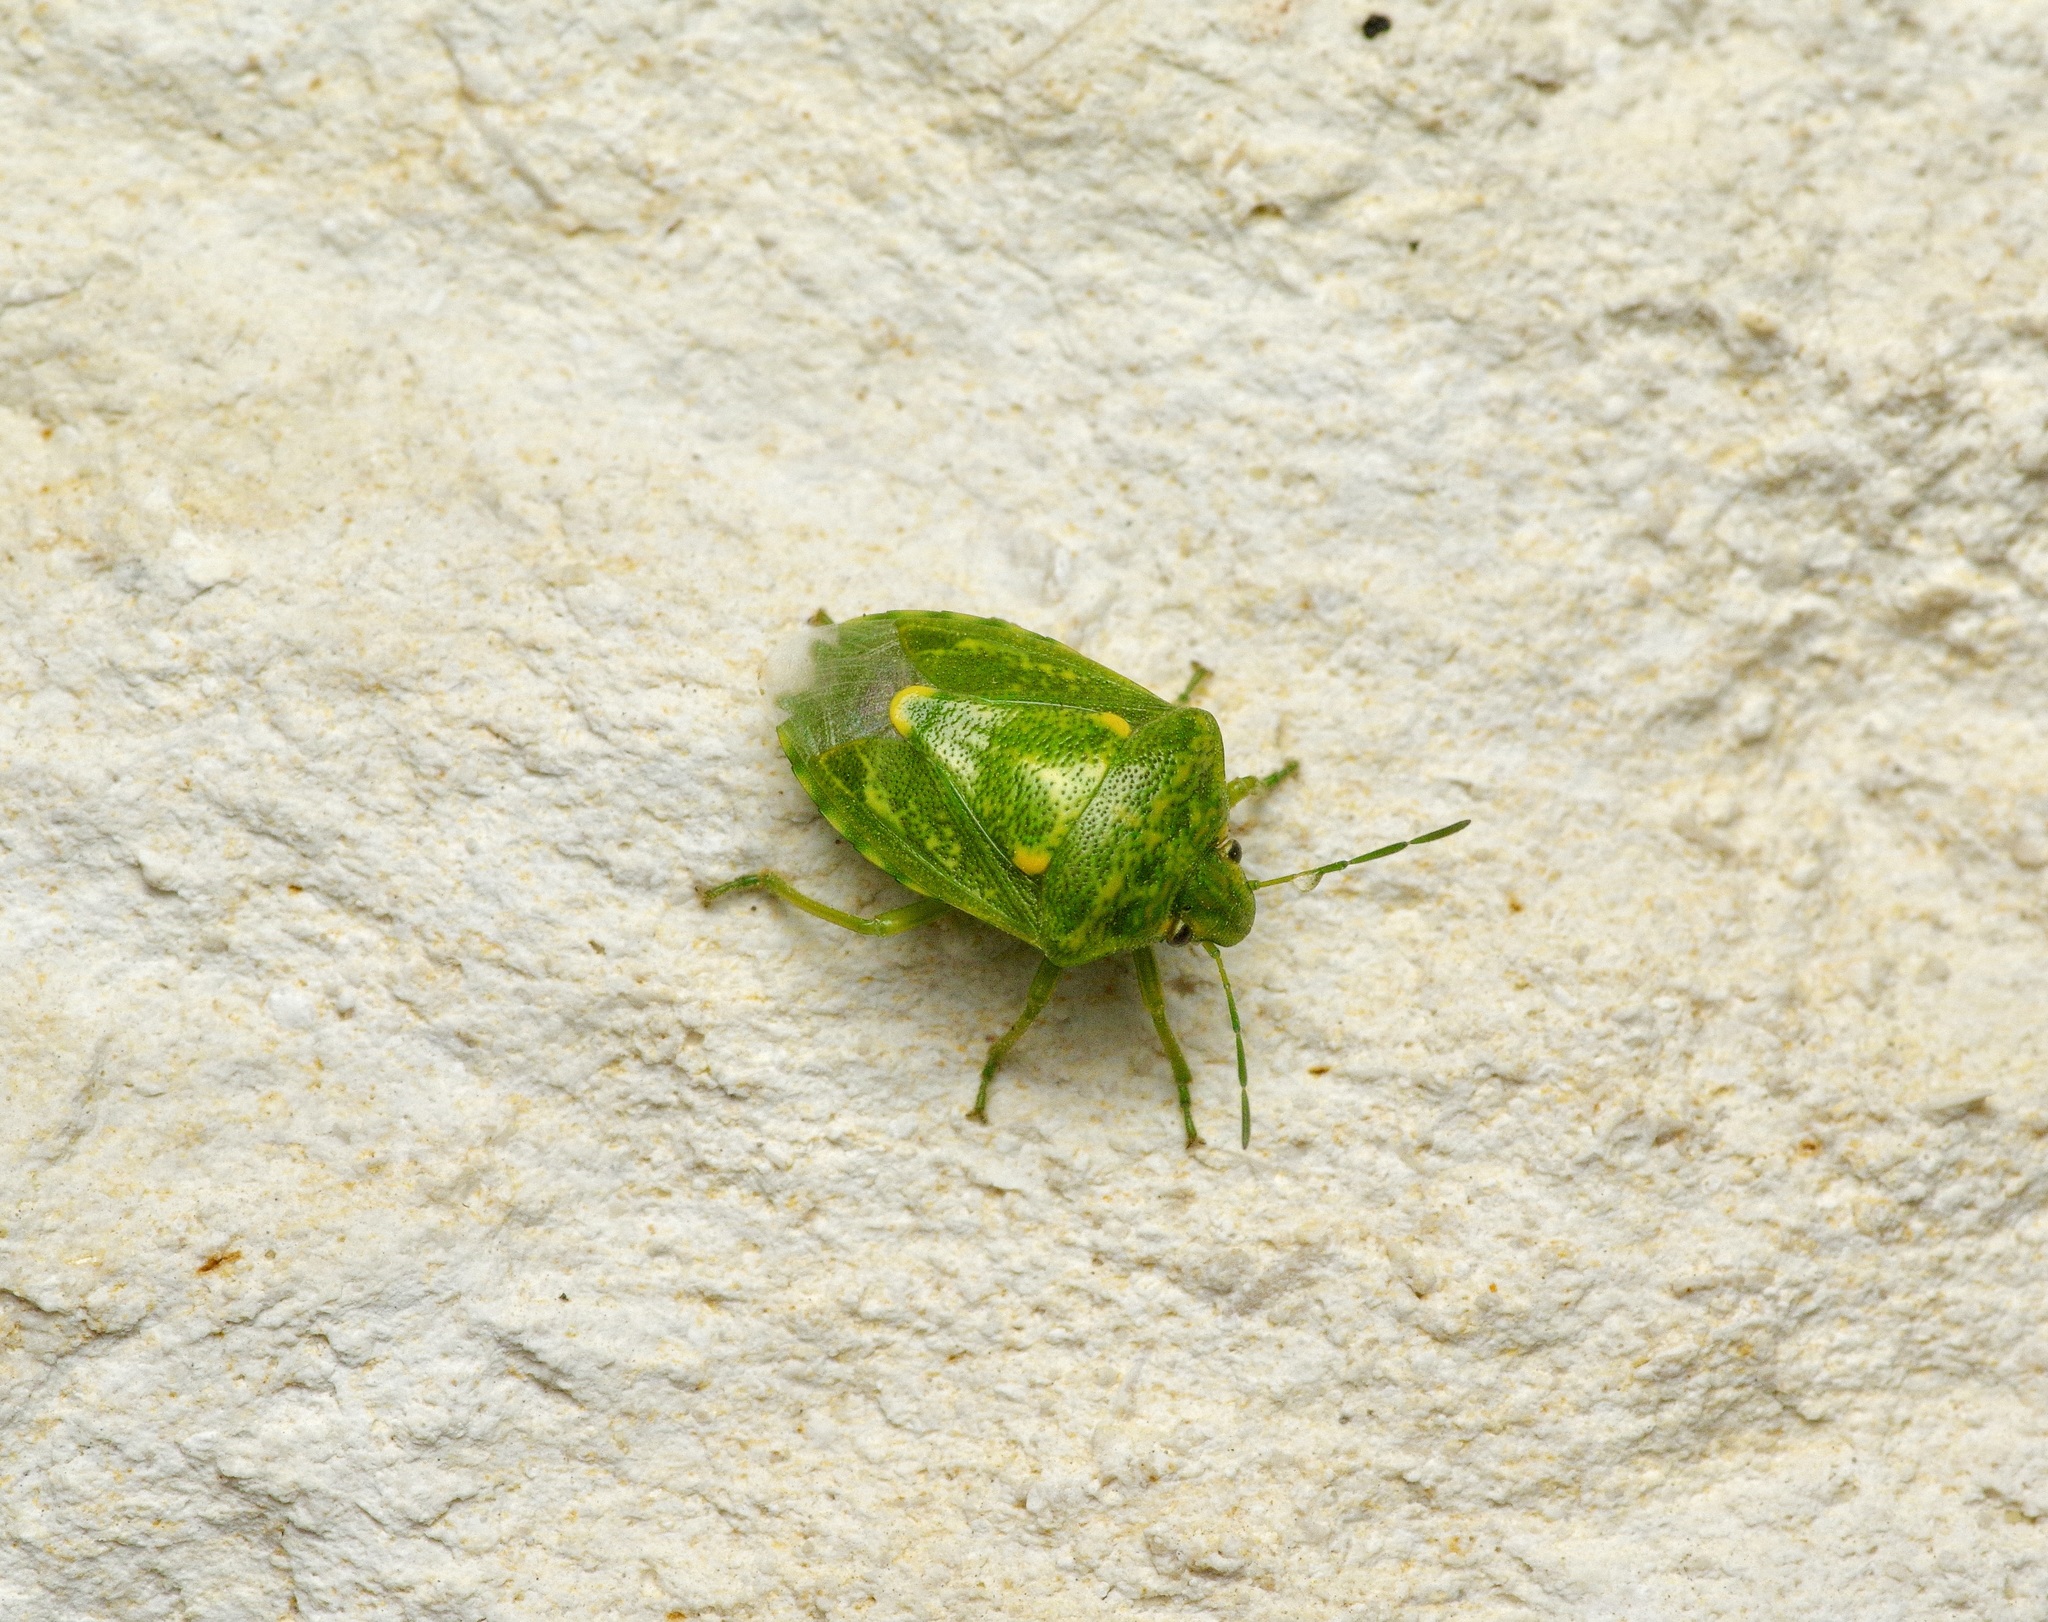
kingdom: Animalia
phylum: Arthropoda
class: Insecta
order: Hemiptera
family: Pentatomidae
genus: Banasa
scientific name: Banasa euchlora
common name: Cedar berry bug
